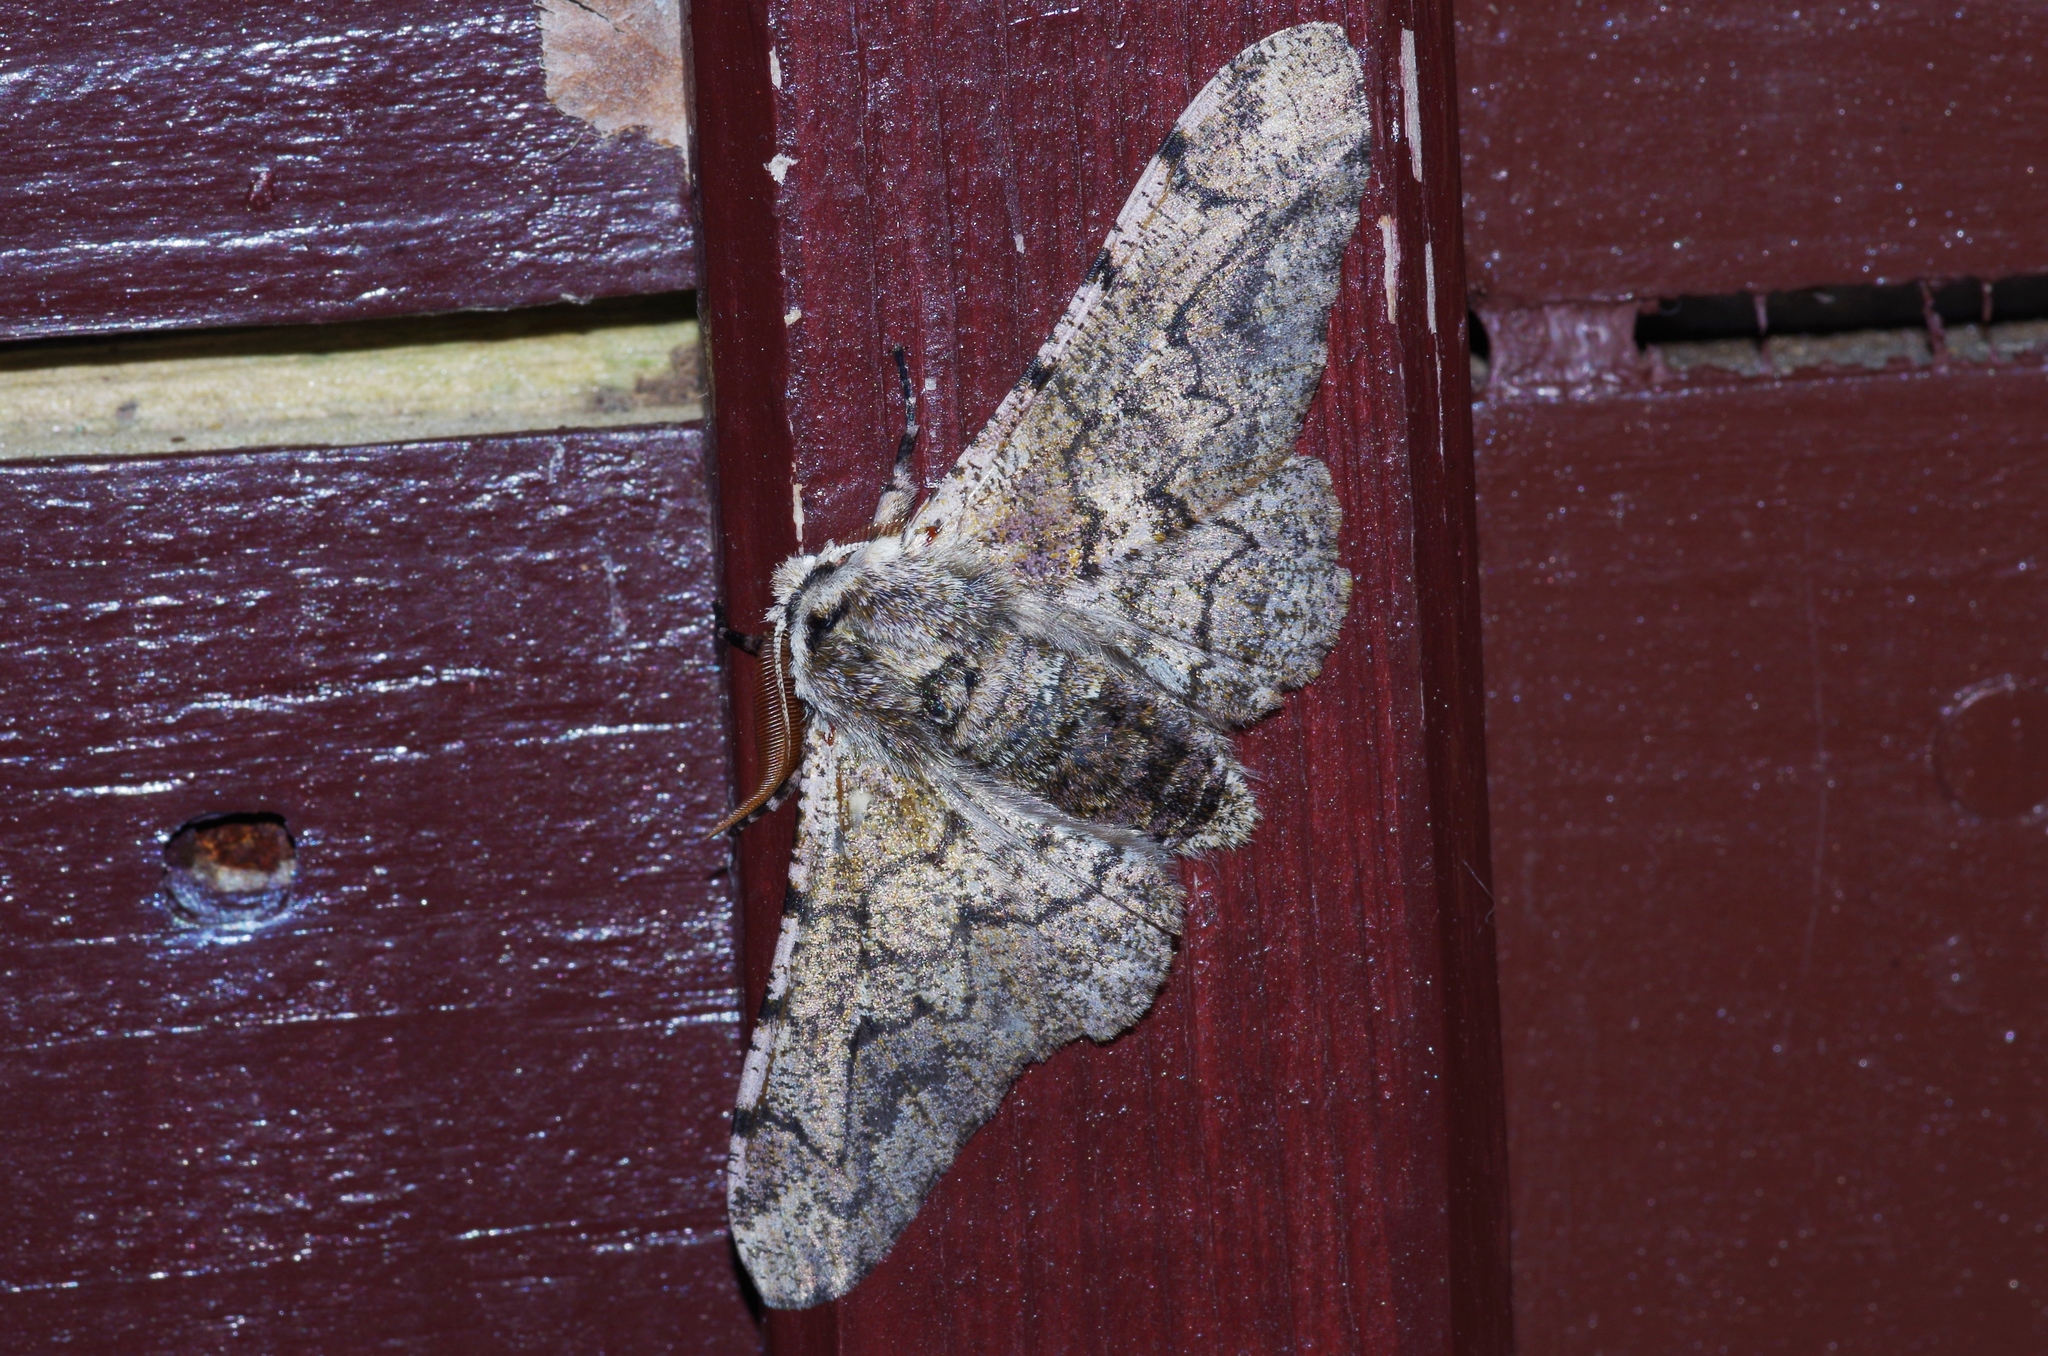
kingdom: Animalia
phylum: Arthropoda
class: Insecta
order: Lepidoptera
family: Geometridae
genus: Biston
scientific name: Biston robustum
